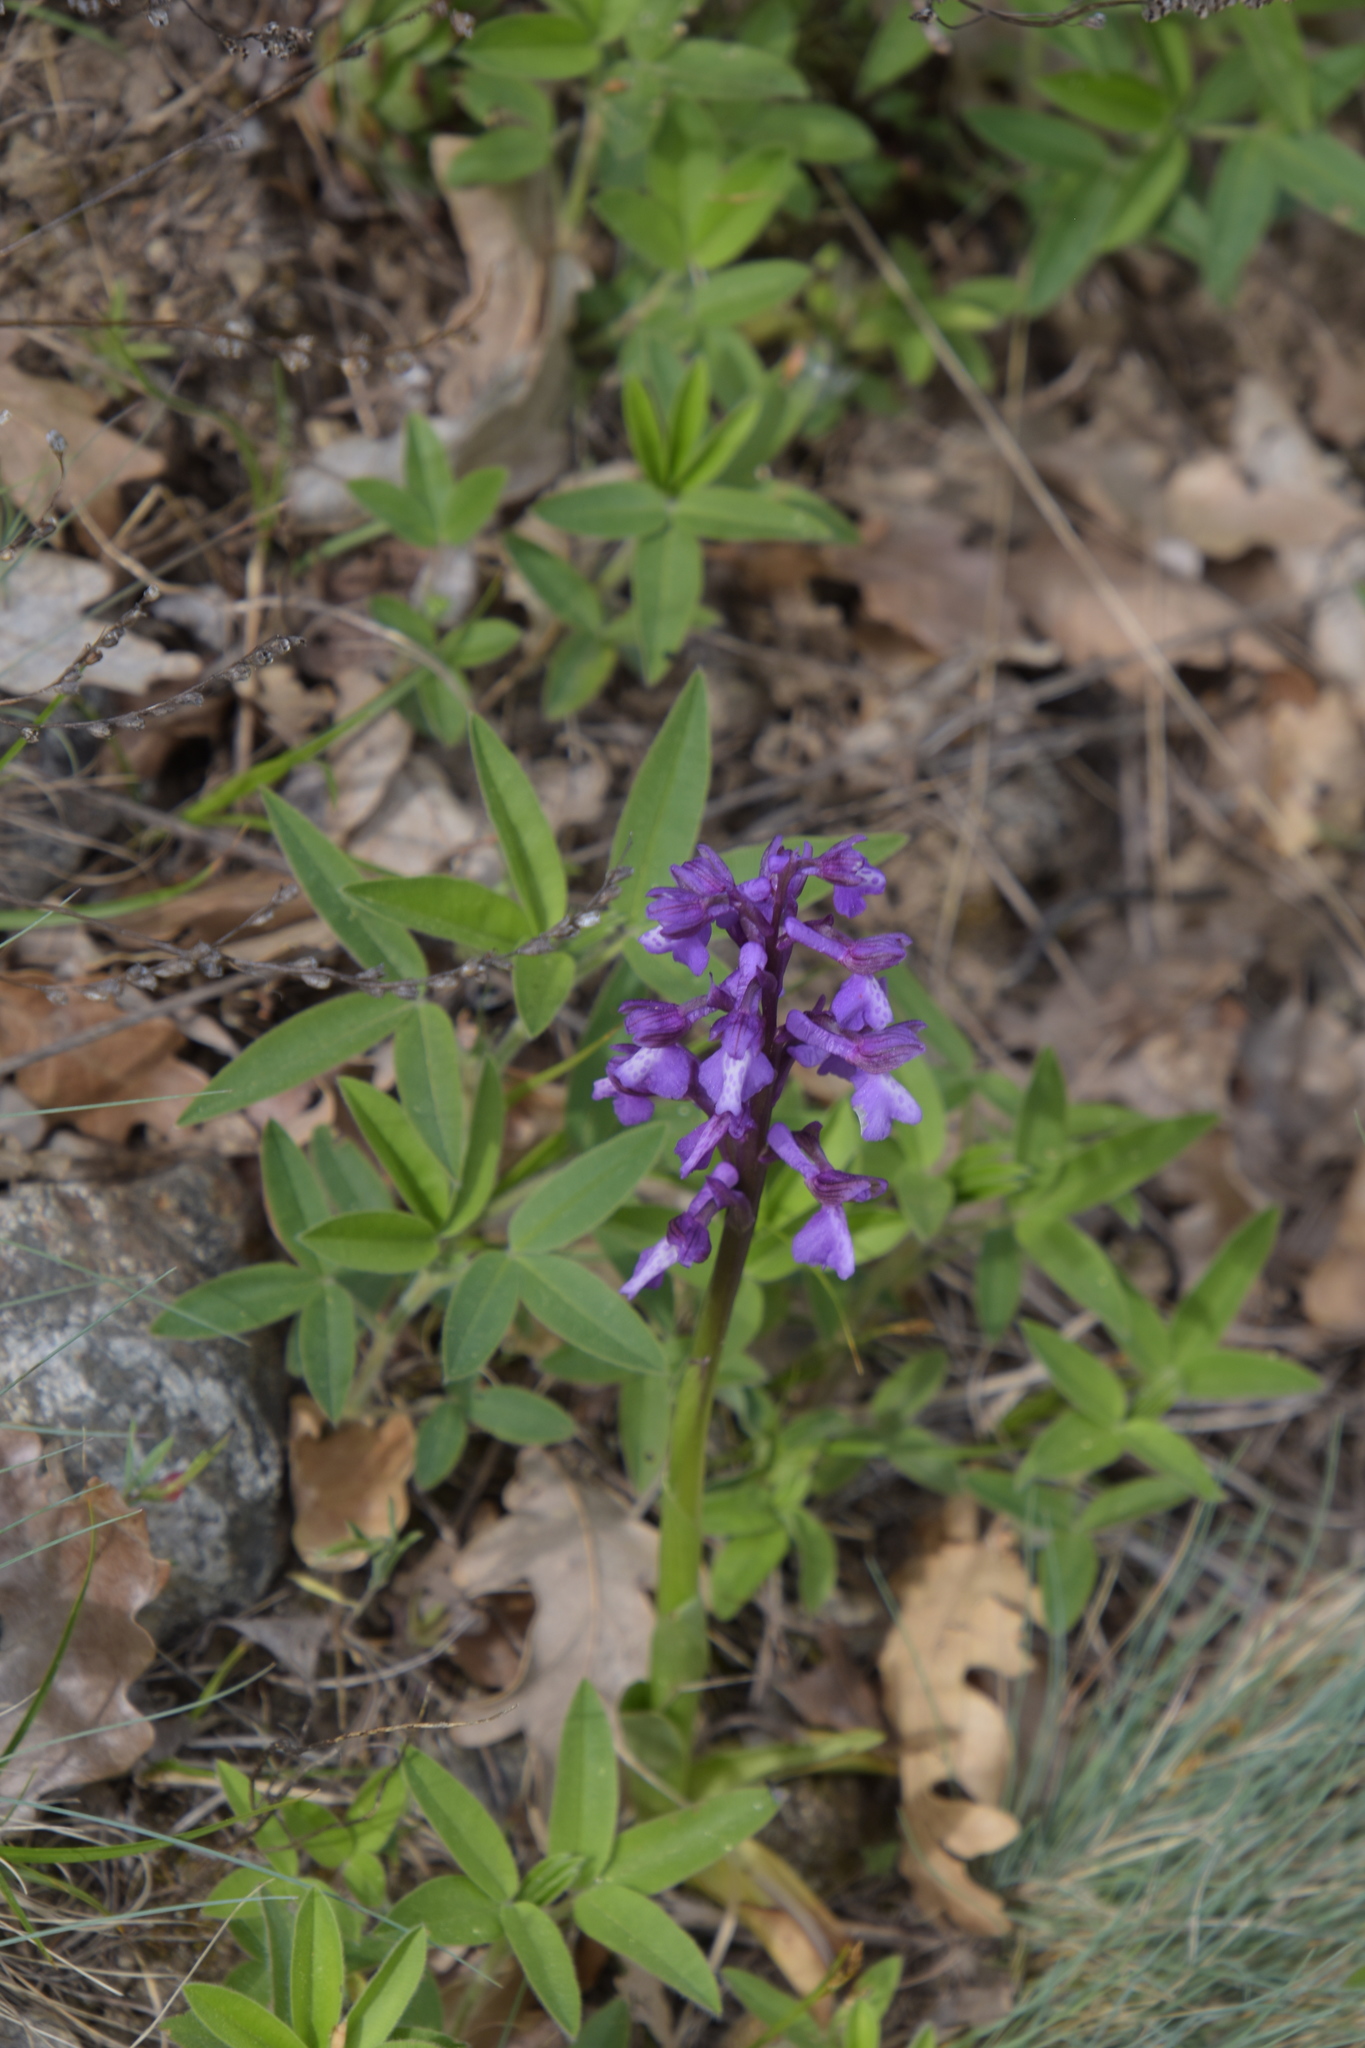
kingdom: Plantae
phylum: Tracheophyta
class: Liliopsida
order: Asparagales
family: Orchidaceae
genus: Anacamptis
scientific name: Anacamptis morio
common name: Green-winged orchid
